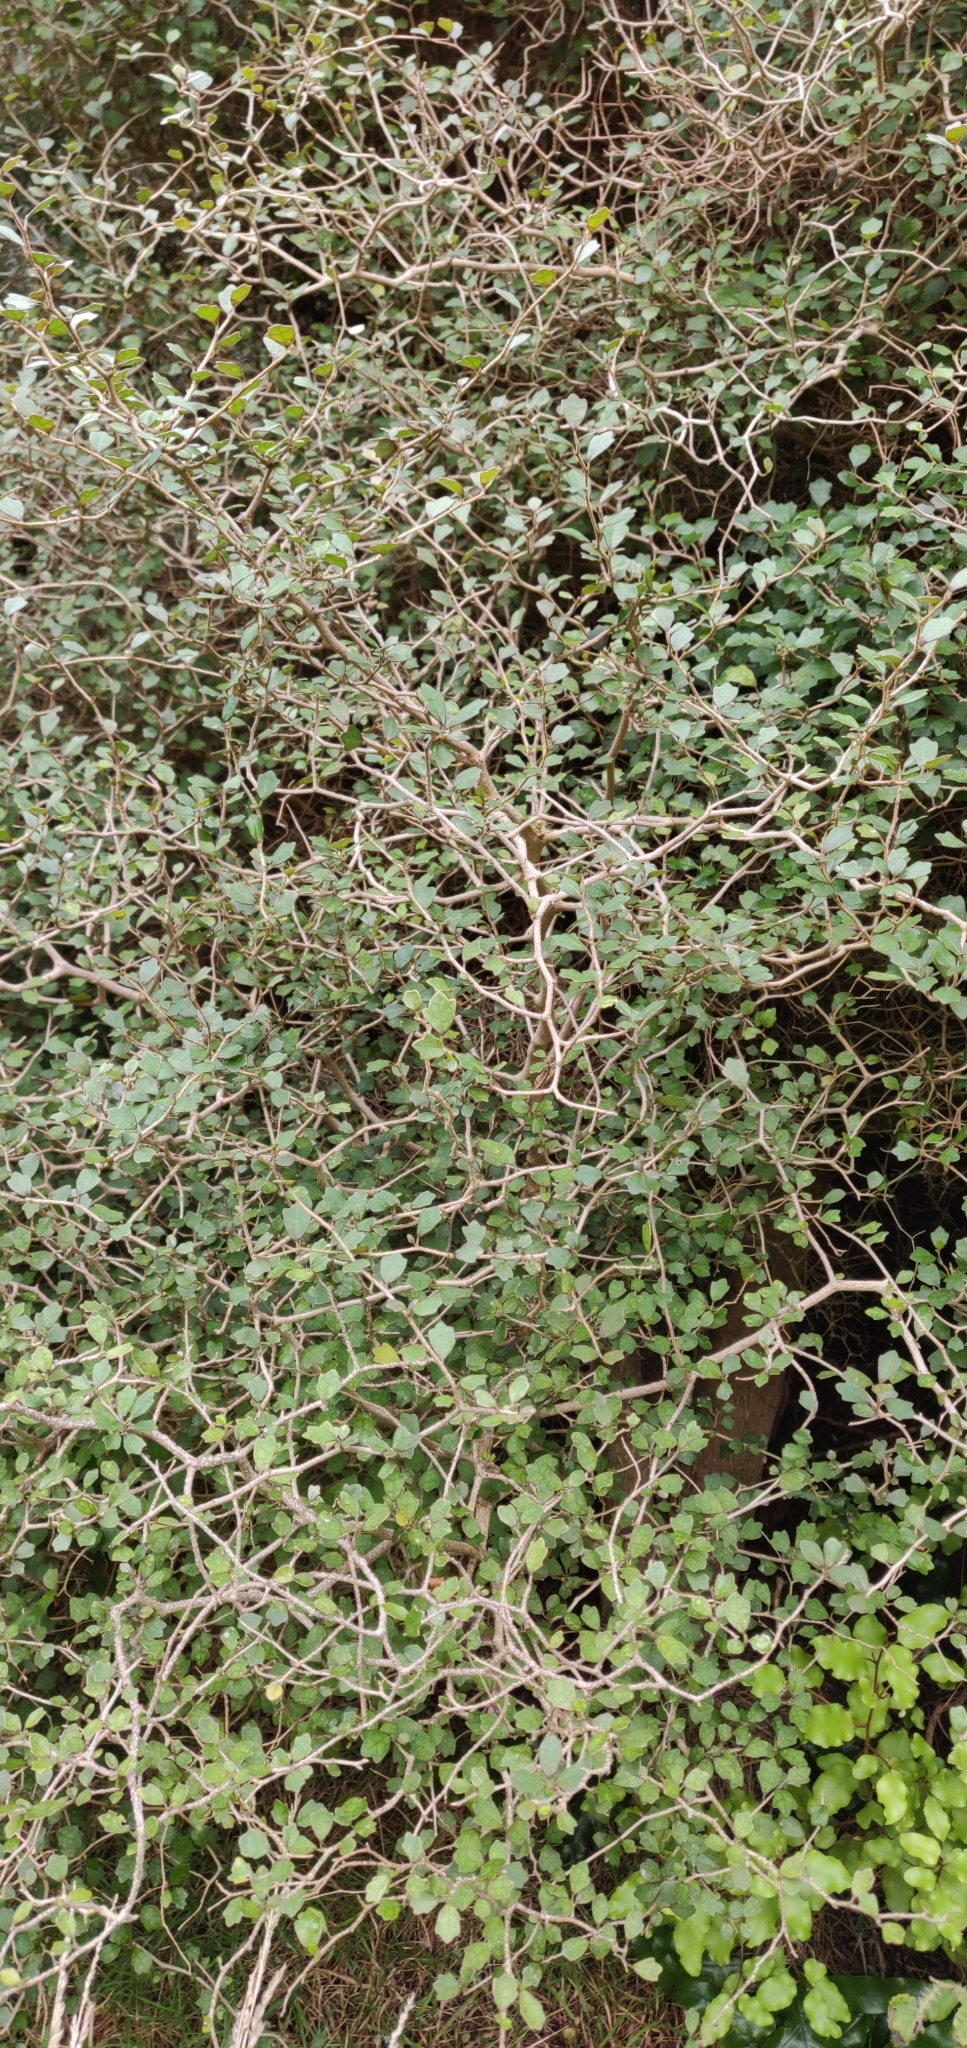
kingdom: Plantae
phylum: Tracheophyta
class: Magnoliopsida
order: Apiales
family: Pennantiaceae
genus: Pennantia
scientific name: Pennantia corymbosa
